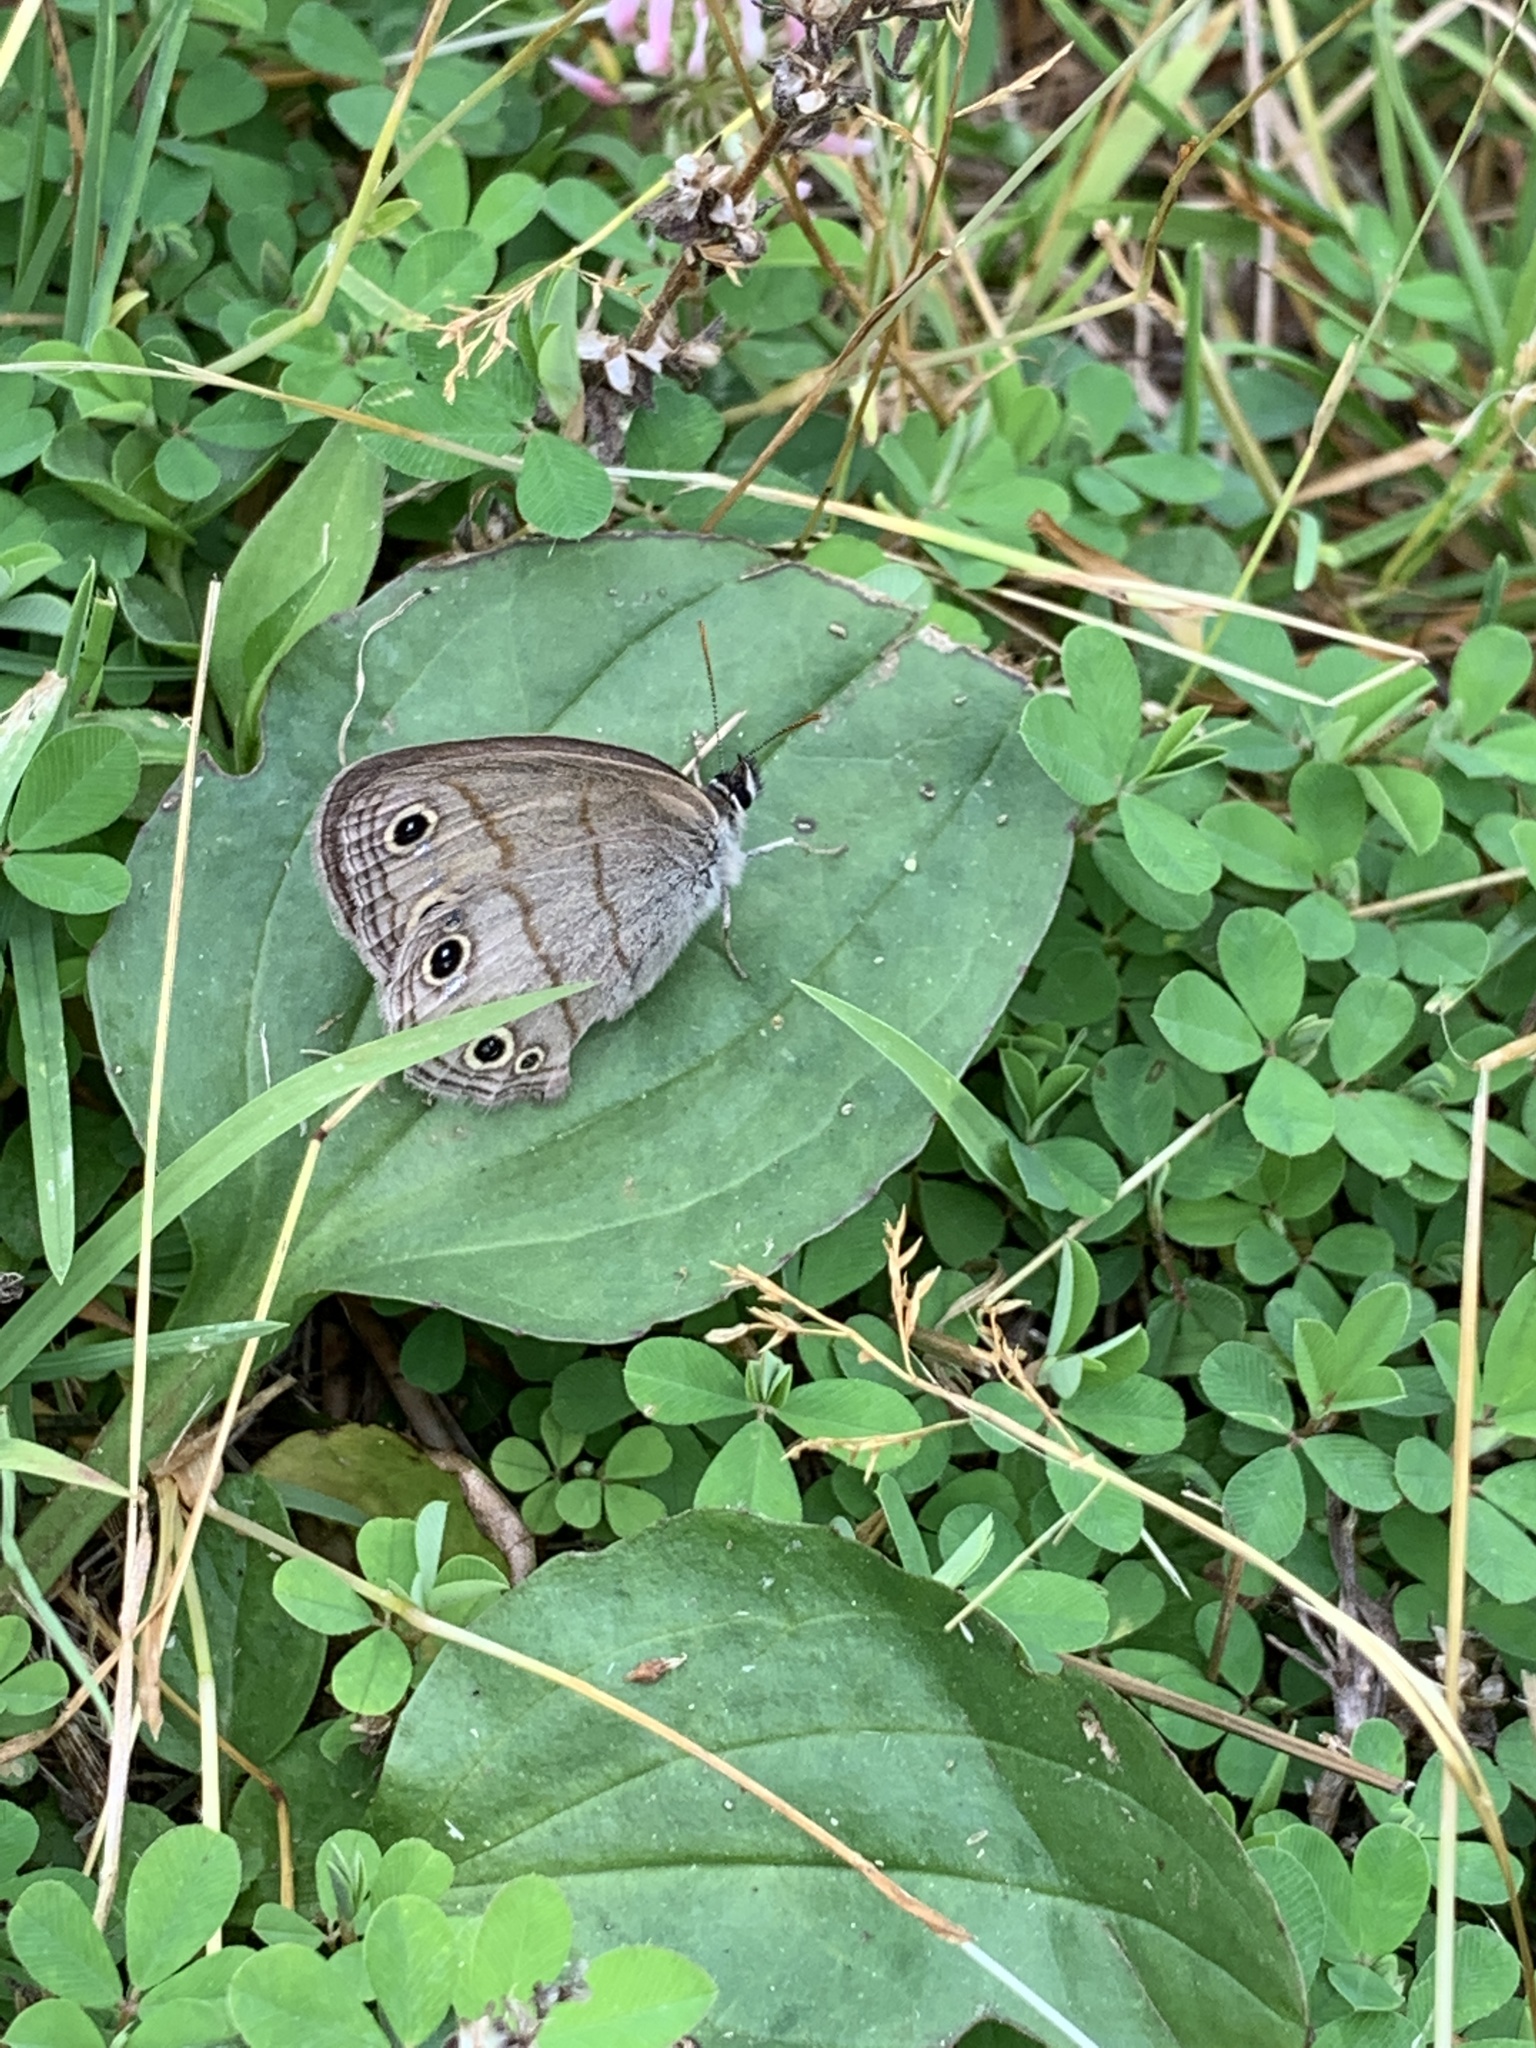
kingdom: Animalia
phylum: Arthropoda
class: Insecta
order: Lepidoptera
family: Nymphalidae
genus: Euptychia
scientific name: Euptychia cymela
